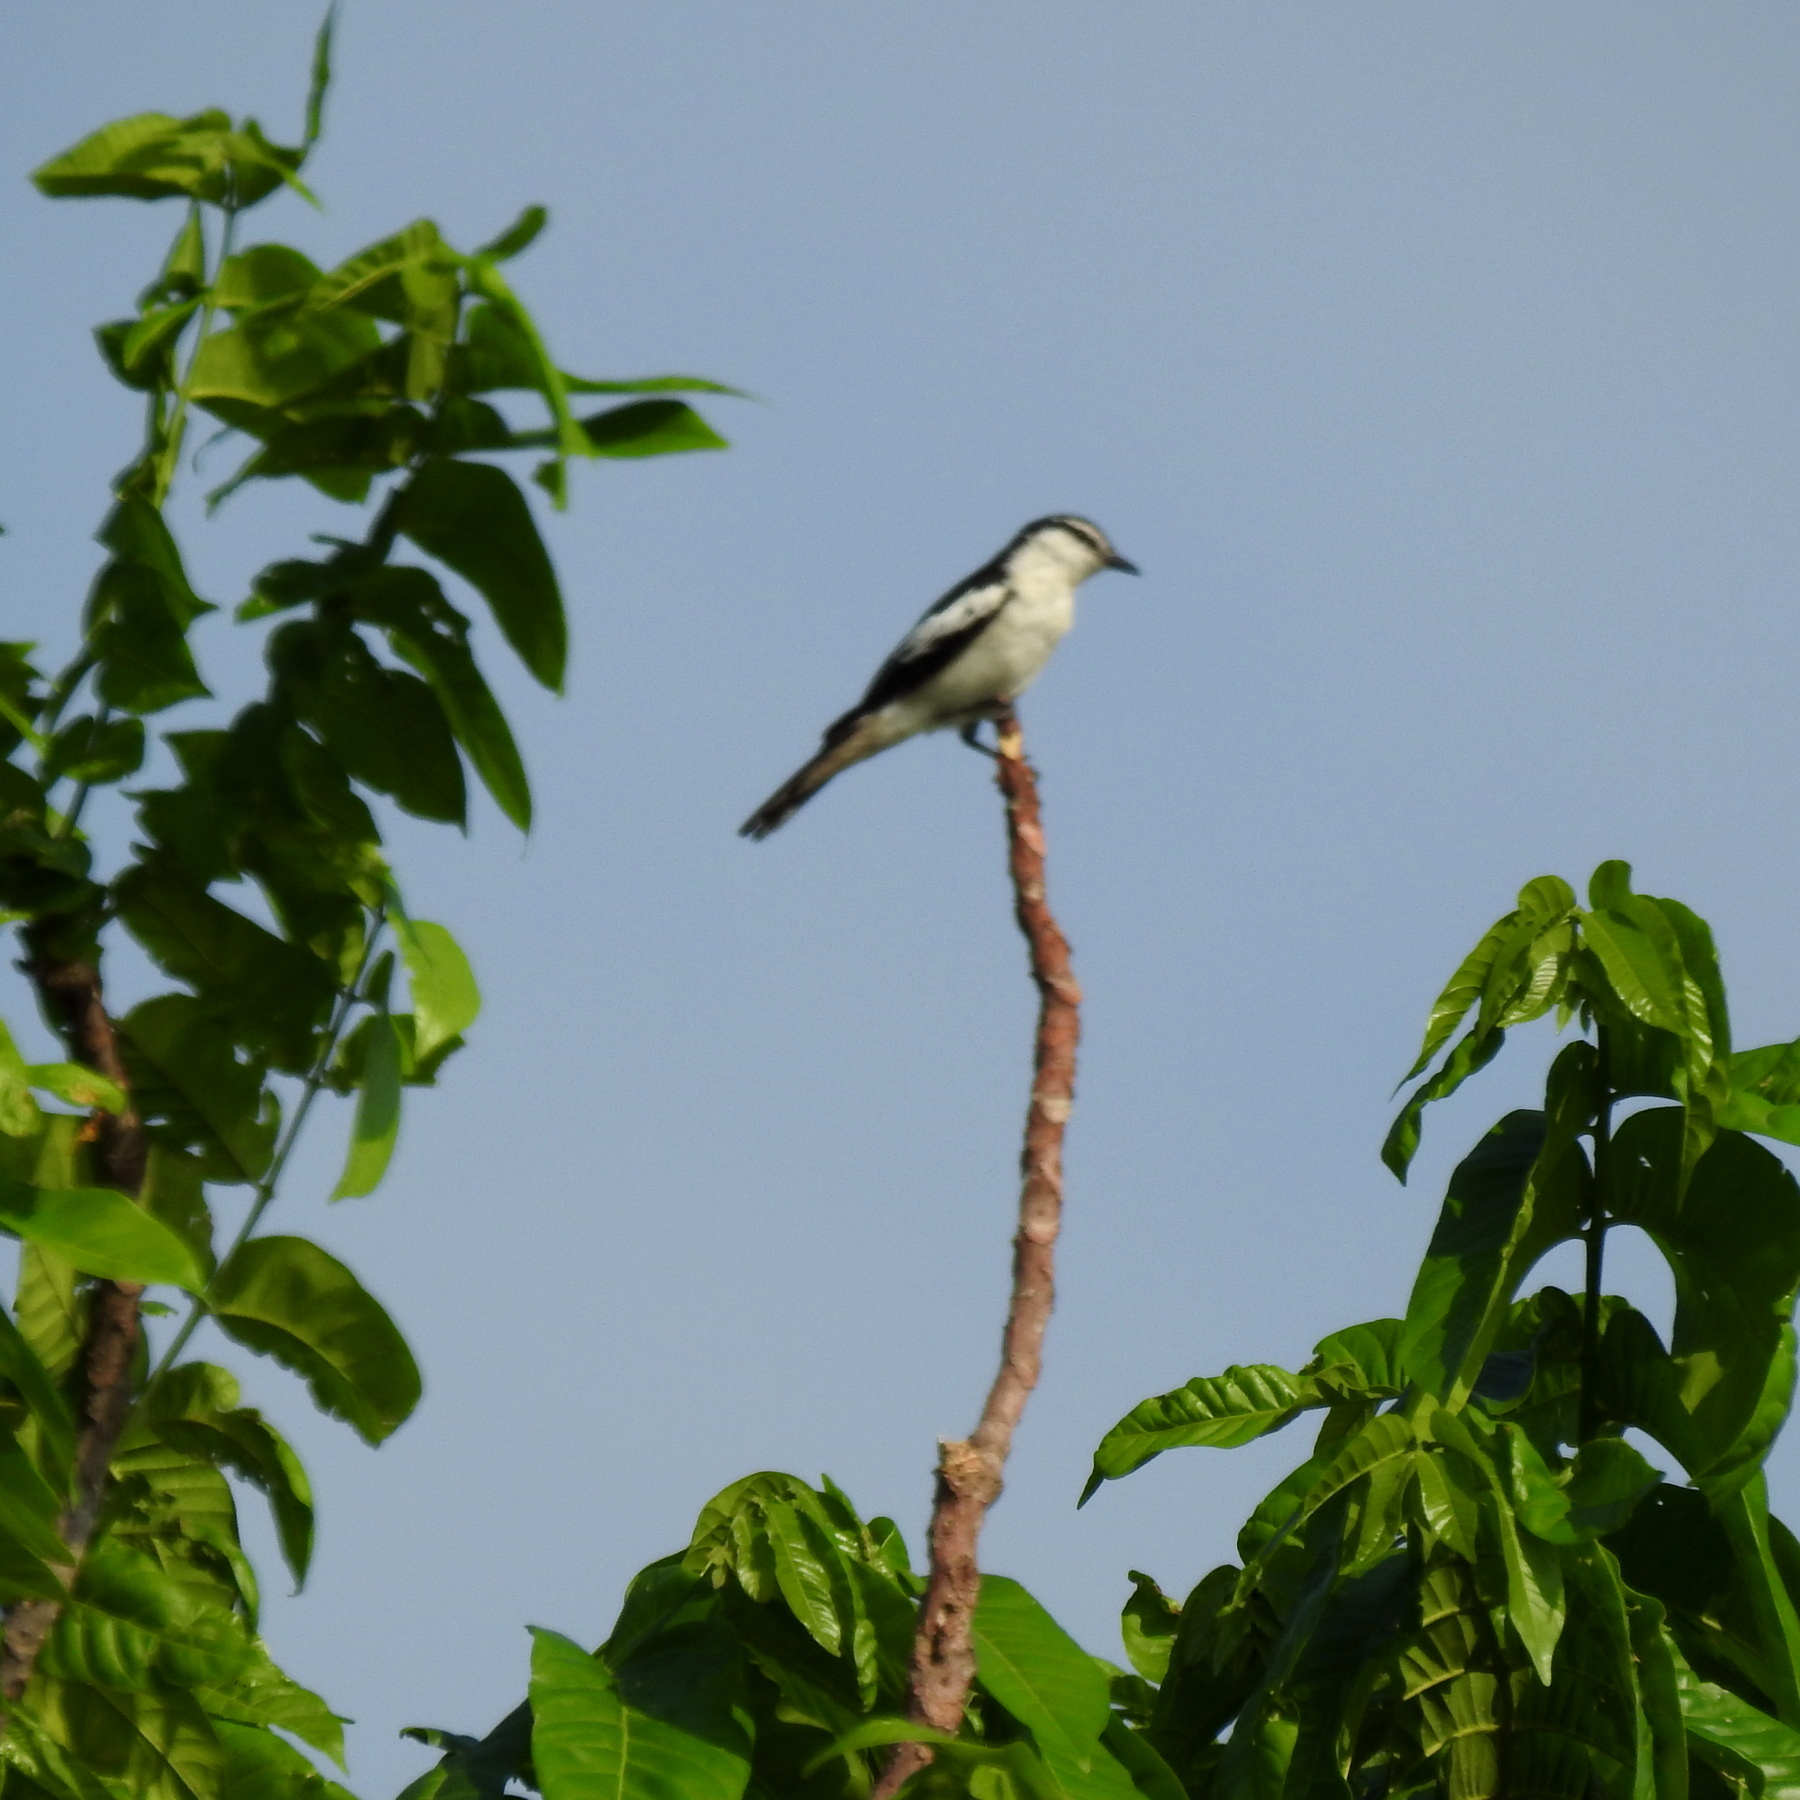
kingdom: Animalia
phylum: Chordata
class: Aves
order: Passeriformes
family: Campephagidae
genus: Lalage
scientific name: Lalage sueurii
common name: White-shouldered triller
